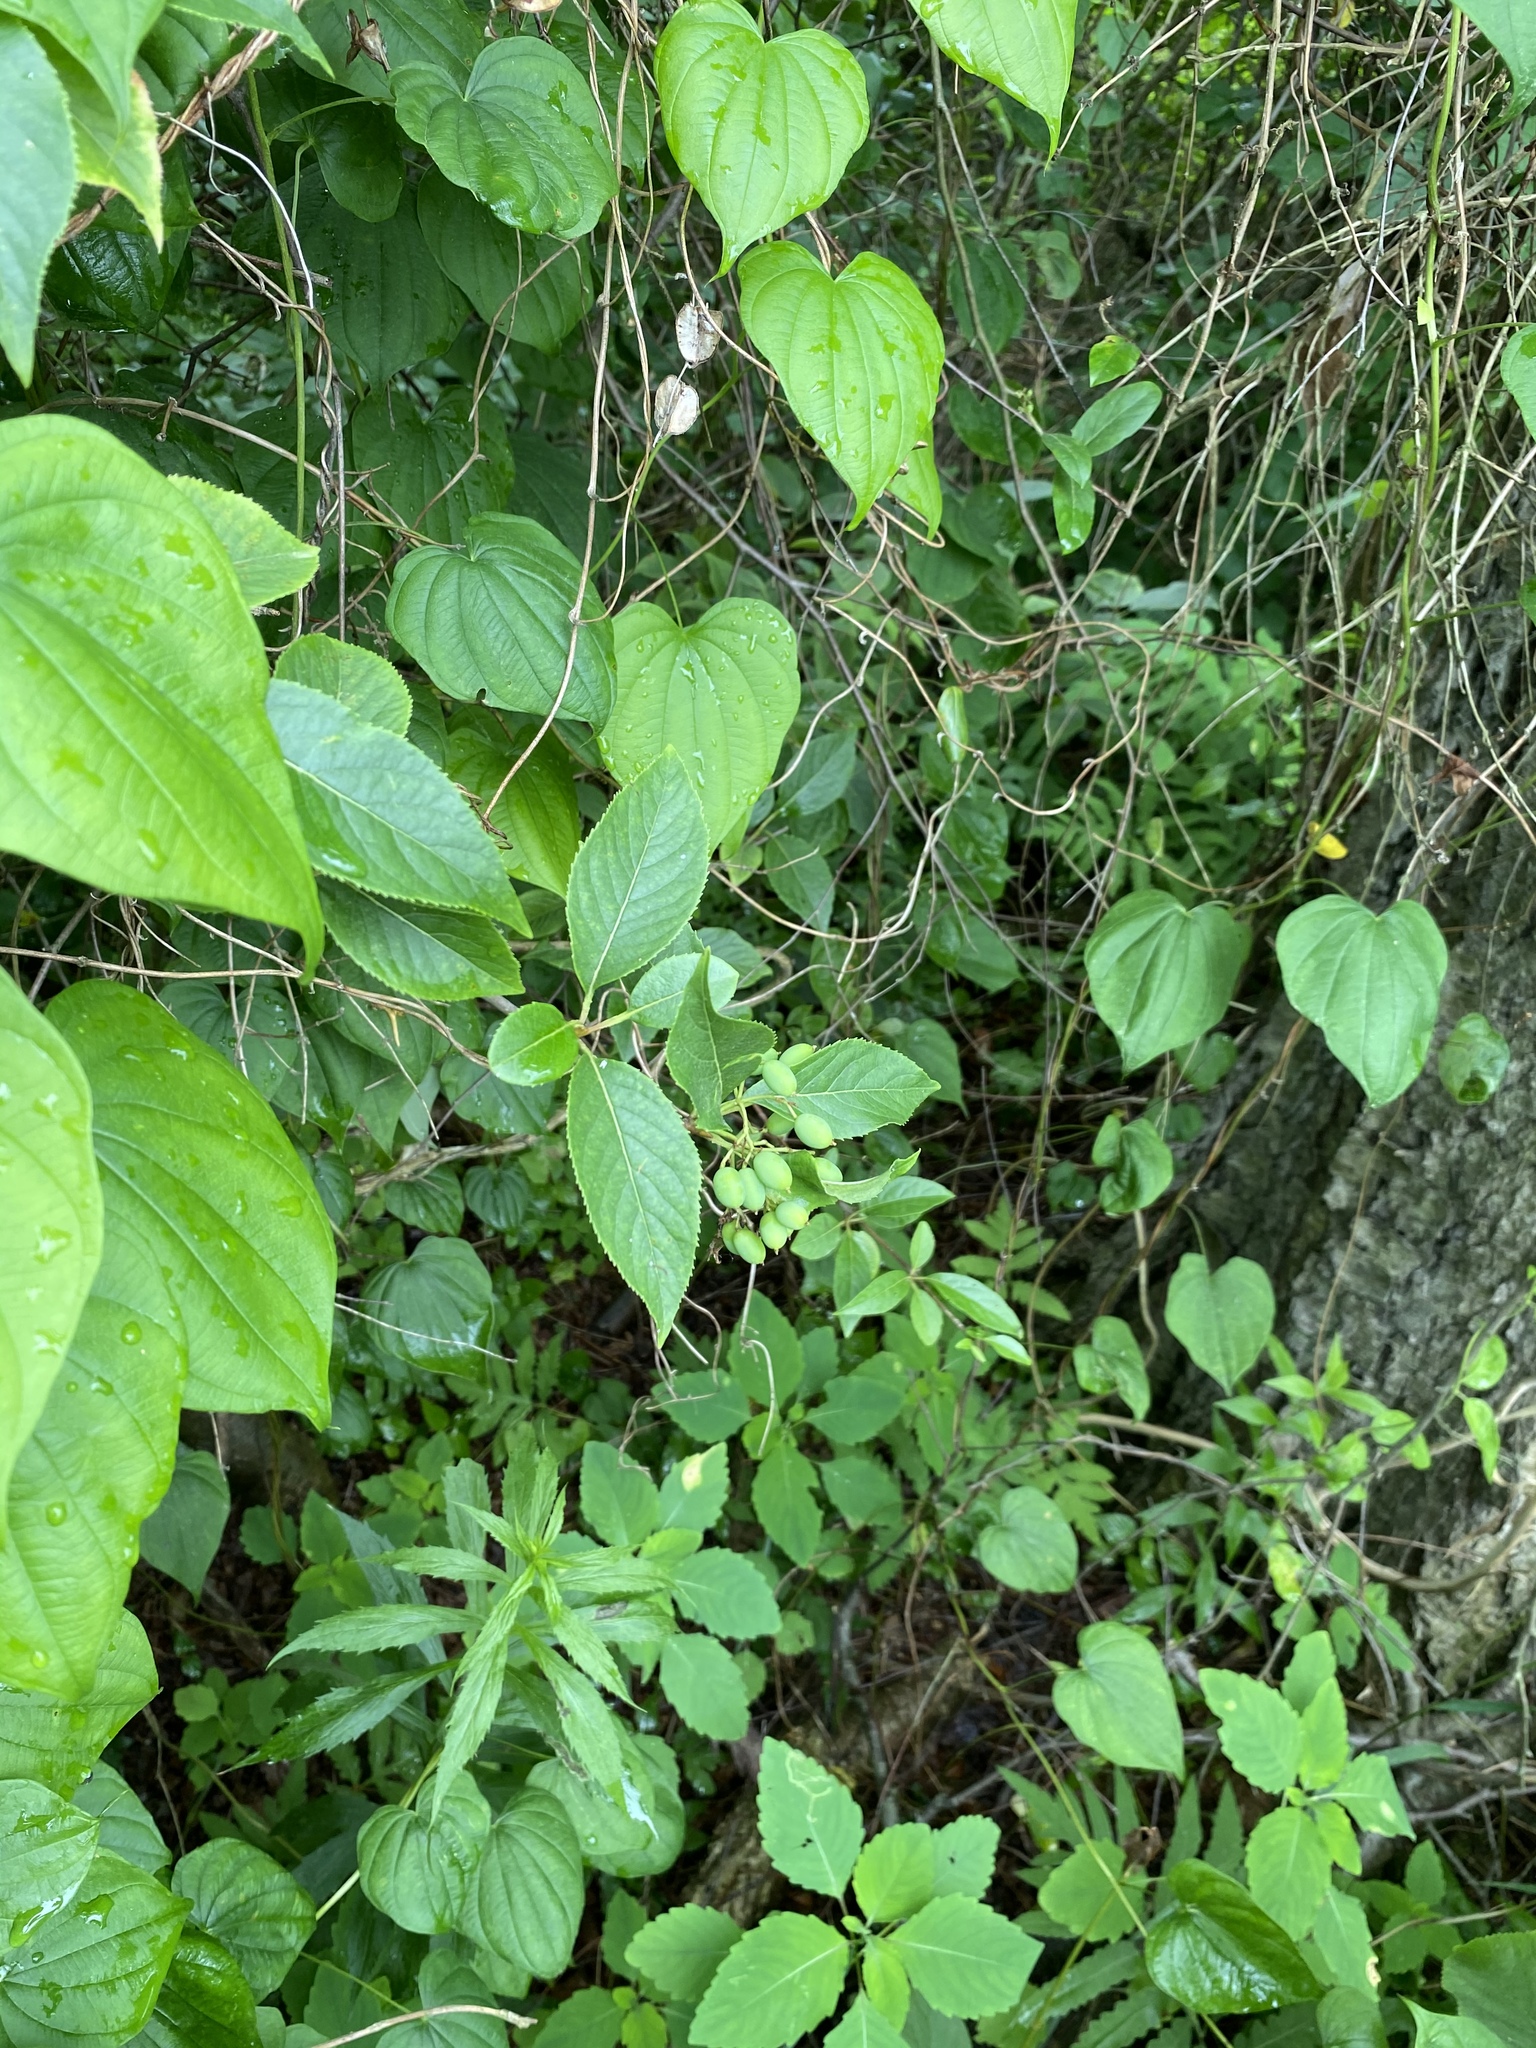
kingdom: Plantae
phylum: Tracheophyta
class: Magnoliopsida
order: Dipsacales
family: Viburnaceae
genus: Viburnum
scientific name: Viburnum lentago
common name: Black haw
